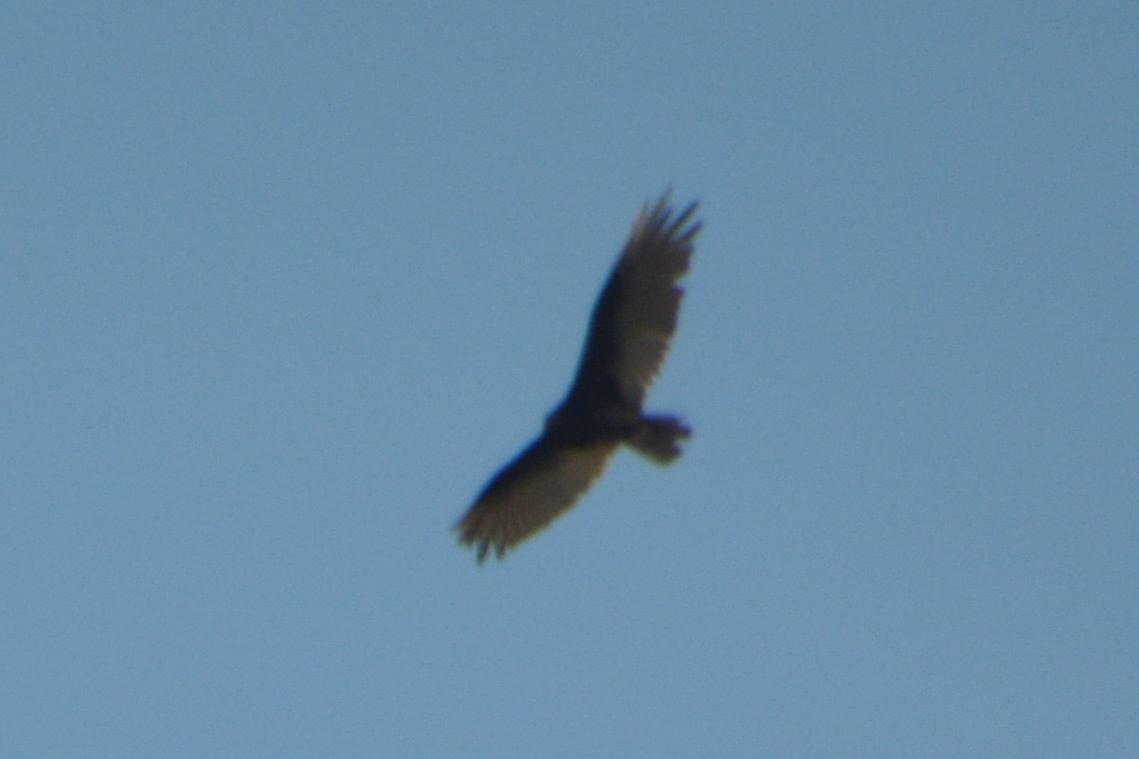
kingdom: Animalia
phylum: Chordata
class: Aves
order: Accipitriformes
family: Cathartidae
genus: Cathartes
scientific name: Cathartes aura
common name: Turkey vulture
